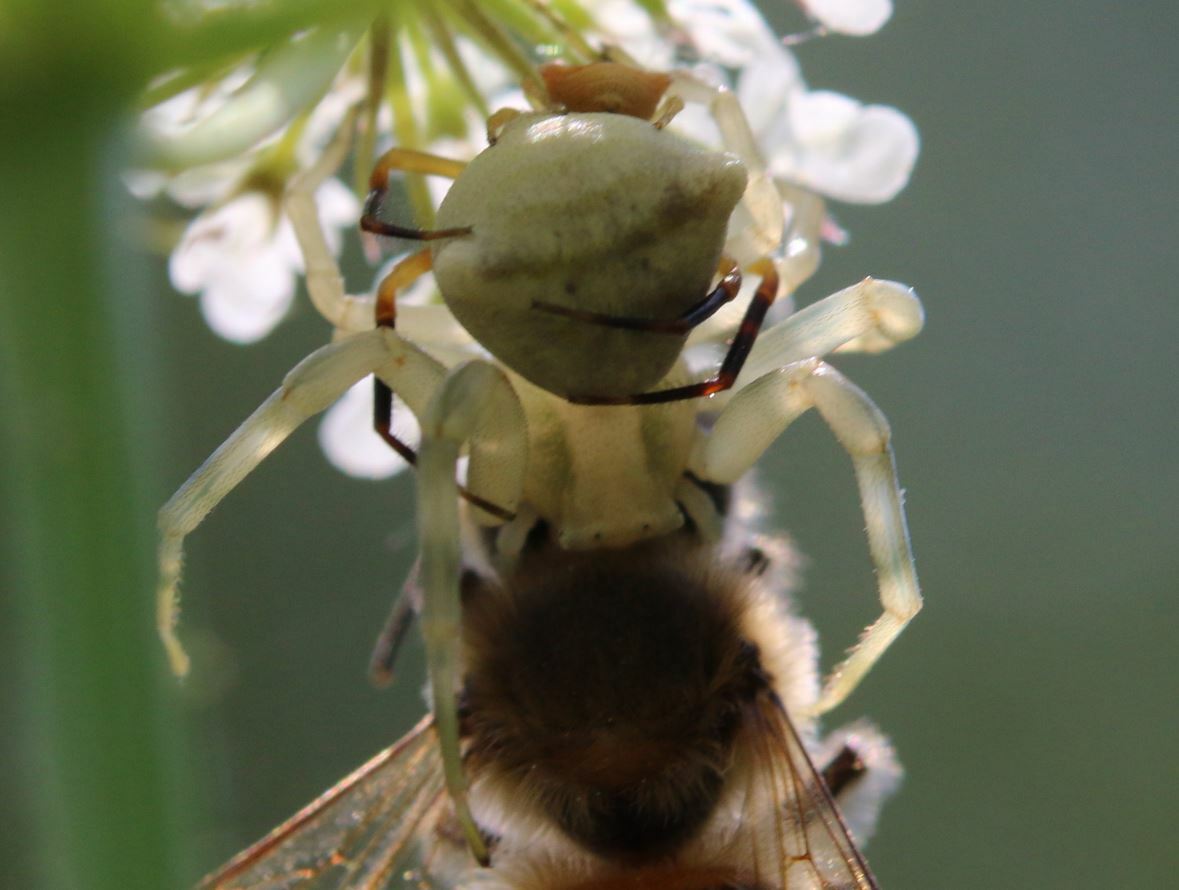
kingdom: Animalia
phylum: Arthropoda
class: Arachnida
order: Araneae
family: Thomisidae
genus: Thomisus
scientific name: Thomisus onustus
